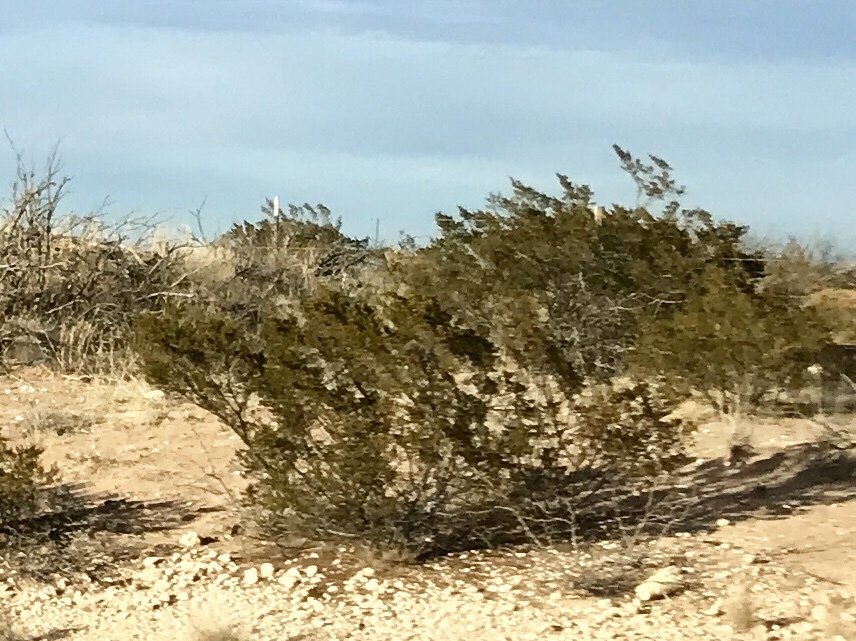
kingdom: Plantae
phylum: Tracheophyta
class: Magnoliopsida
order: Zygophyllales
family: Zygophyllaceae
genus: Larrea
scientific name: Larrea tridentata
